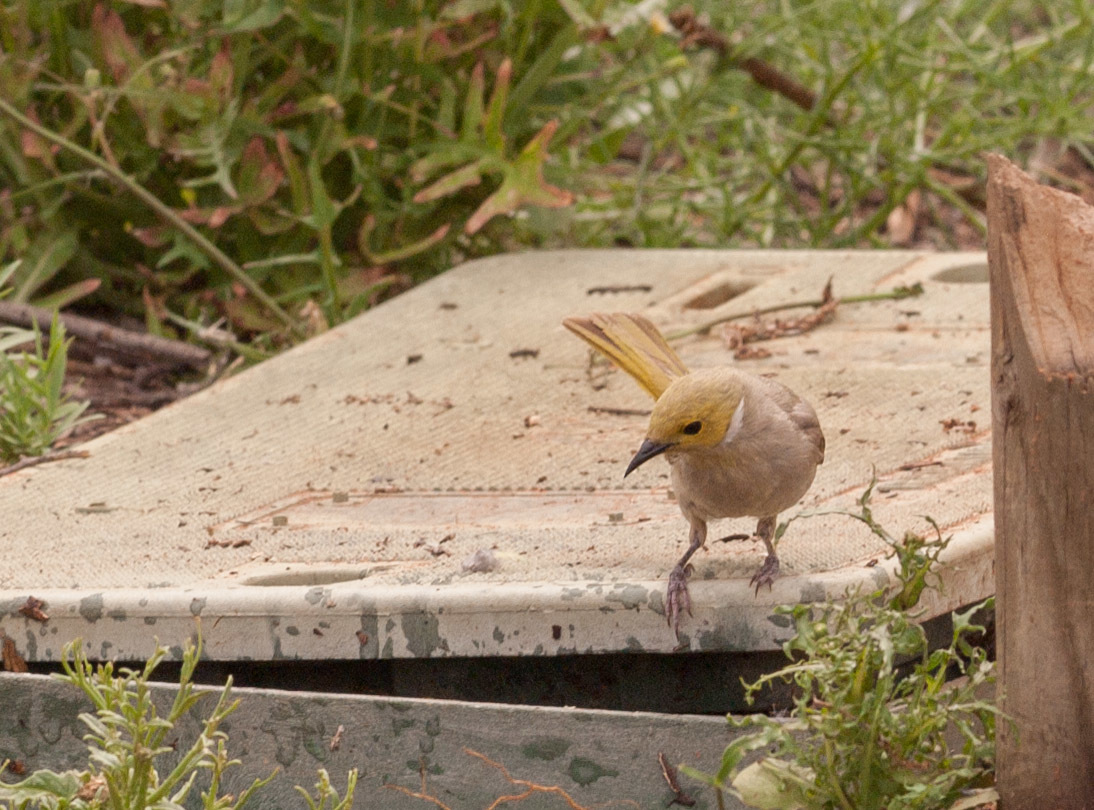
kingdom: Animalia
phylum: Chordata
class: Aves
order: Passeriformes
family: Meliphagidae
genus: Ptilotula
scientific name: Ptilotula penicillata
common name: White-plumed honeyeater
